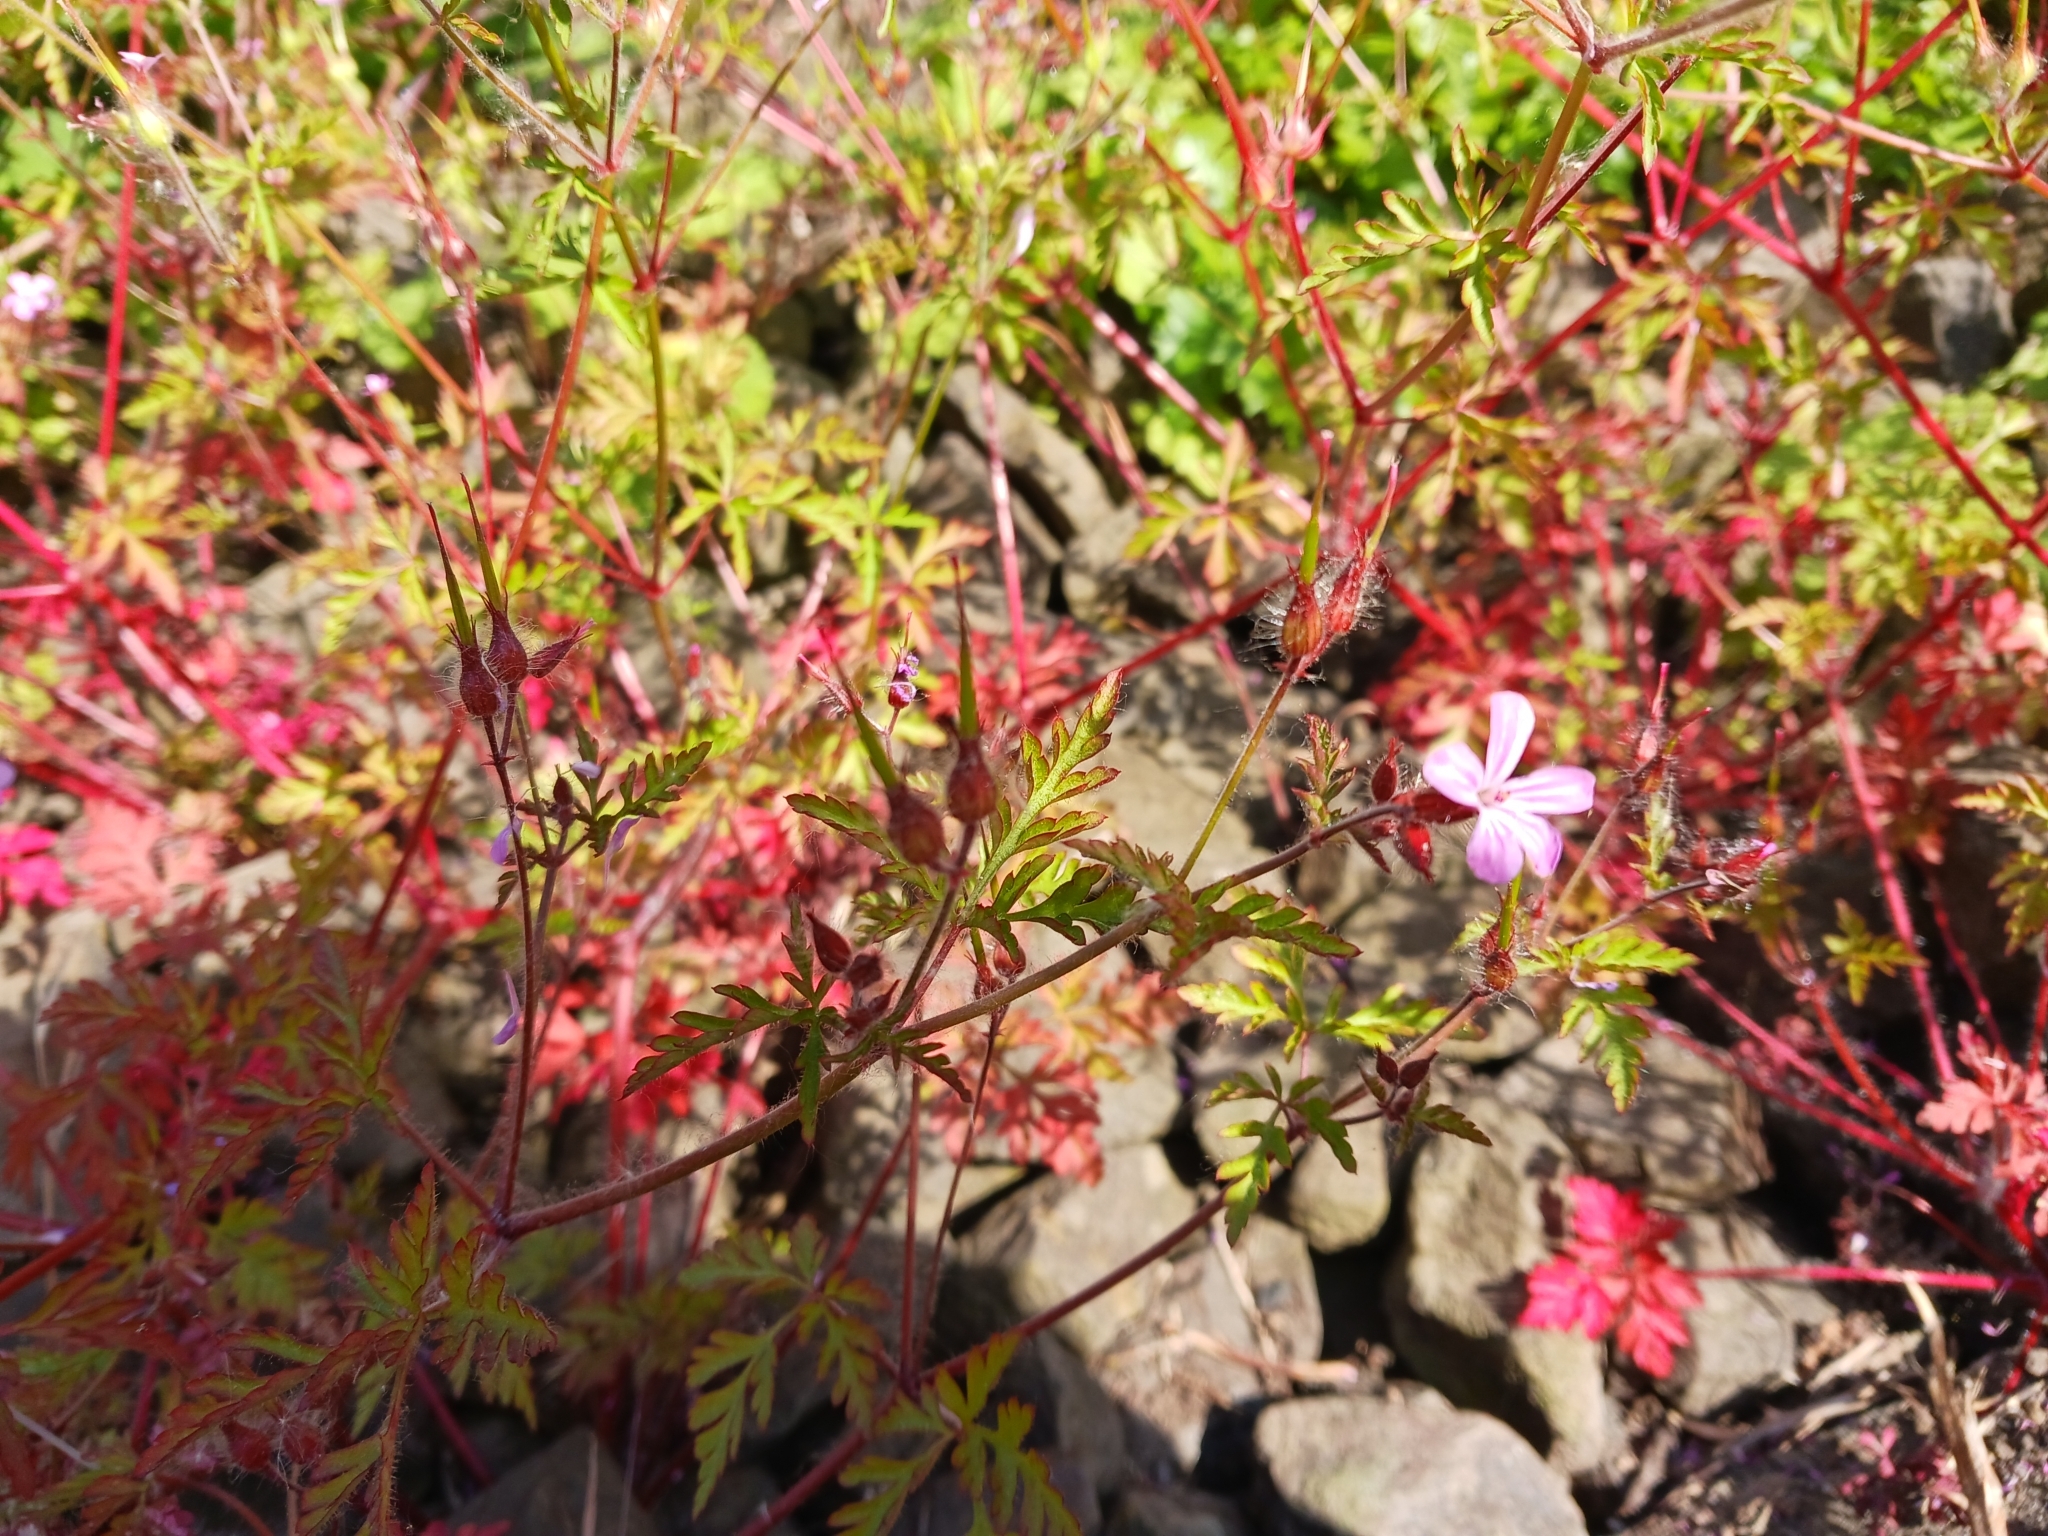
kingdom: Plantae
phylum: Tracheophyta
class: Magnoliopsida
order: Geraniales
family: Geraniaceae
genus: Geranium
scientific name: Geranium robertianum
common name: Herb-robert
